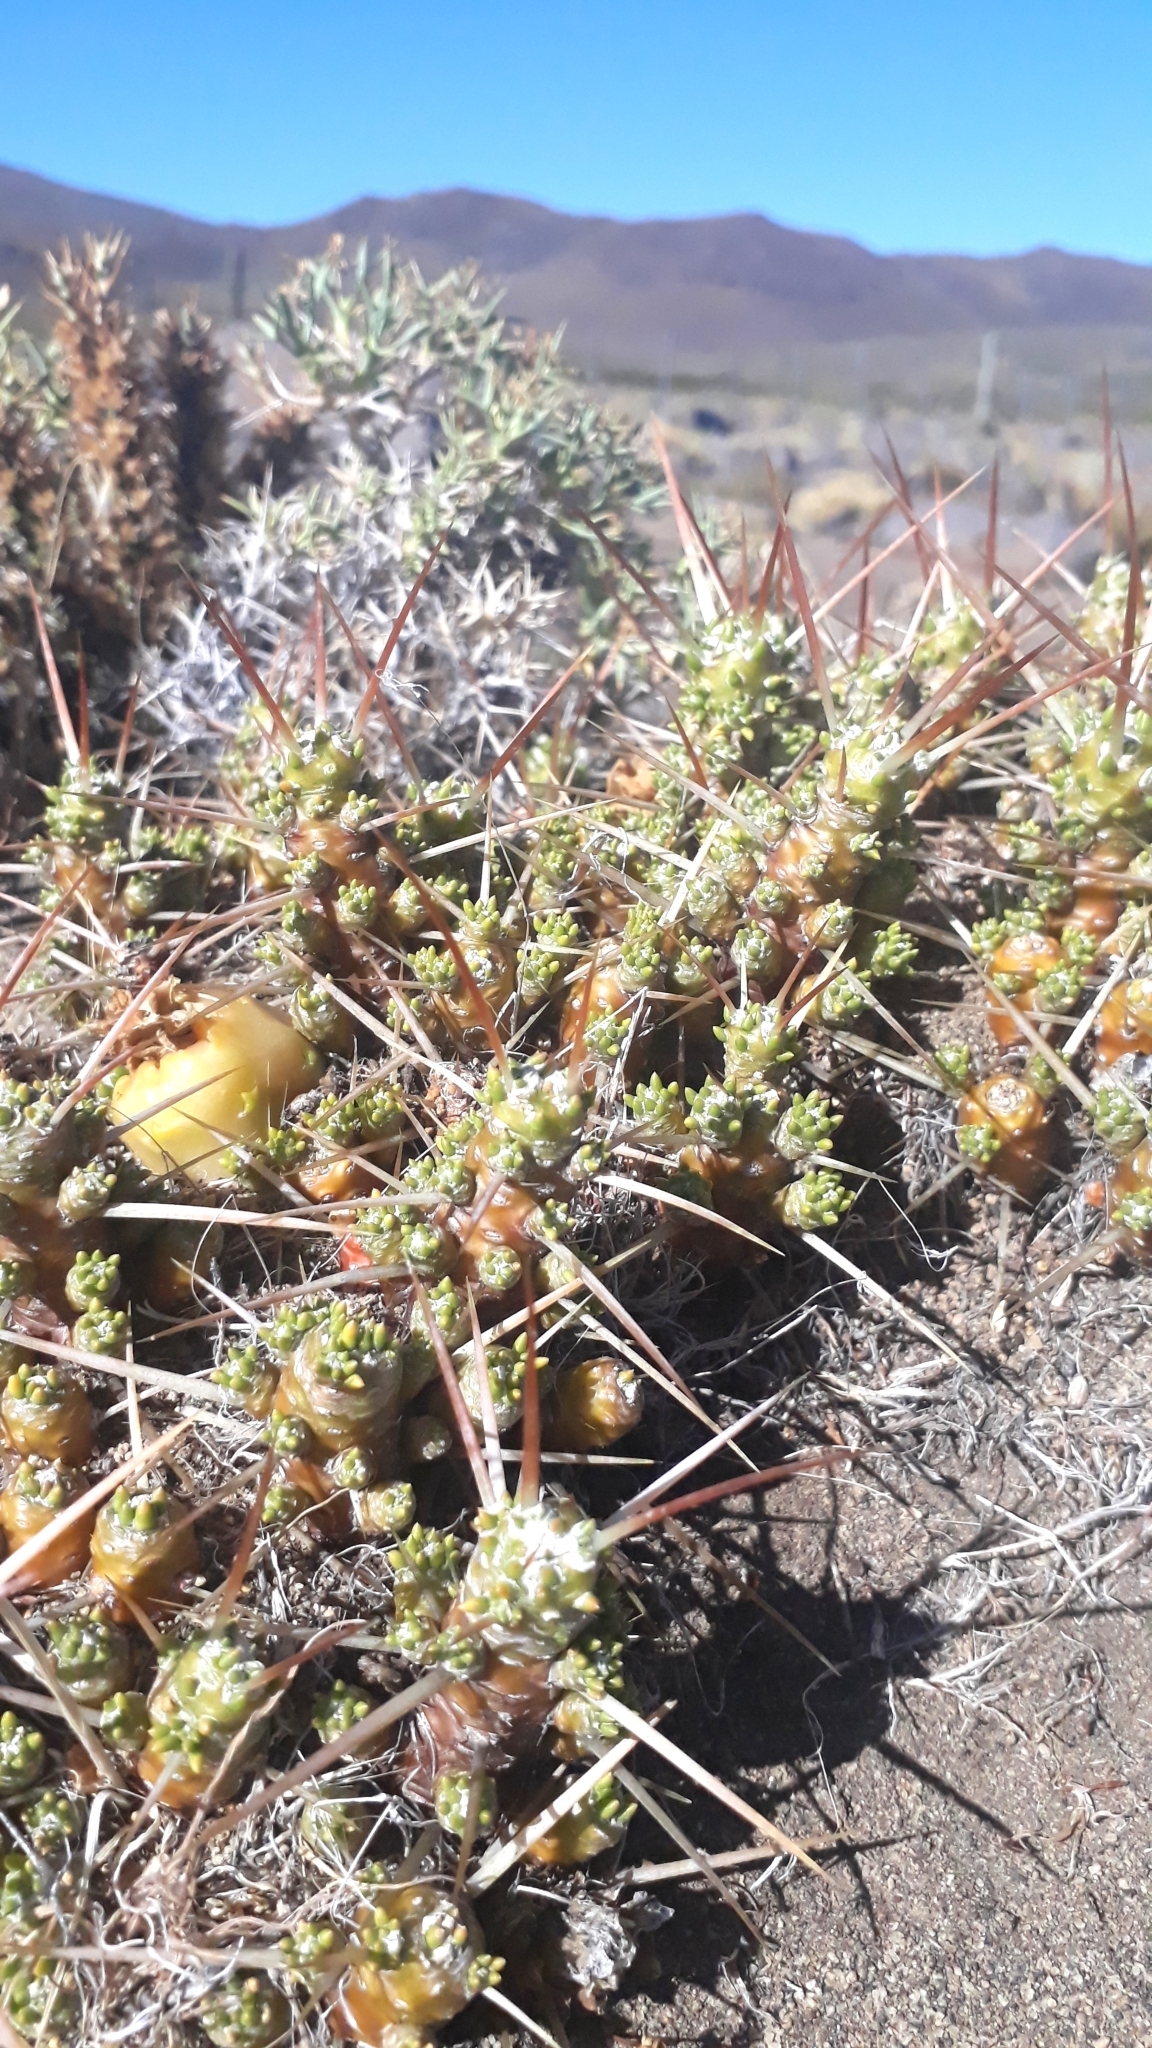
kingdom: Plantae
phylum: Tracheophyta
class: Magnoliopsida
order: Caryophyllales
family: Cactaceae
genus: Maihuenia
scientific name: Maihuenia patagonica
